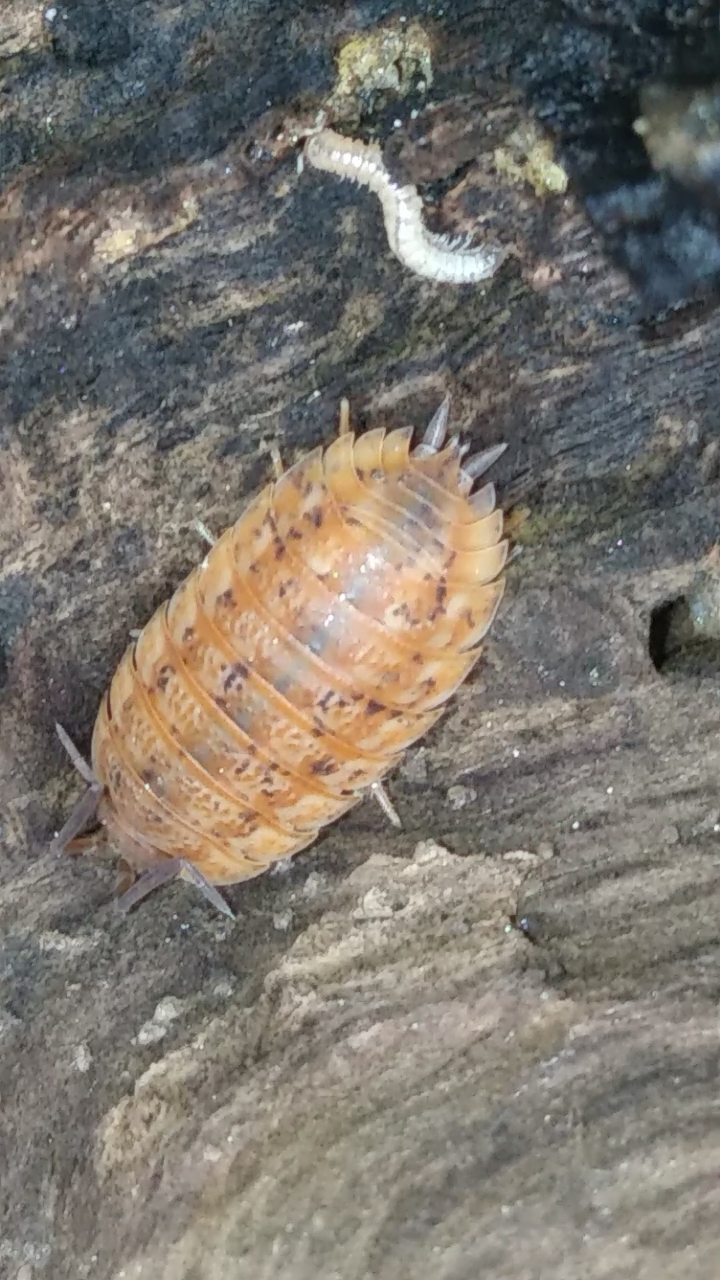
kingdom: Animalia
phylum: Arthropoda
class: Malacostraca
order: Isopoda
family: Trachelipodidae
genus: Trachelipus
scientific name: Trachelipus rathkii
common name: Isopod
